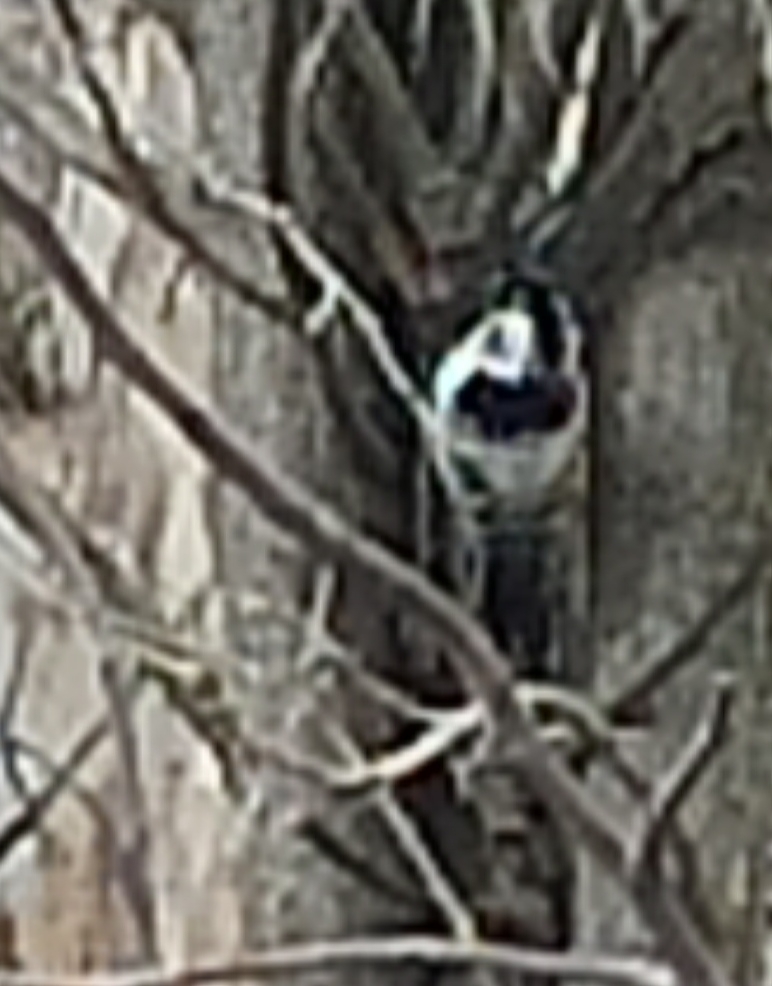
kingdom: Animalia
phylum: Chordata
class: Aves
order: Piciformes
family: Picidae
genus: Dryobates
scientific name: Dryobates minor
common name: Lesser spotted woodpecker
